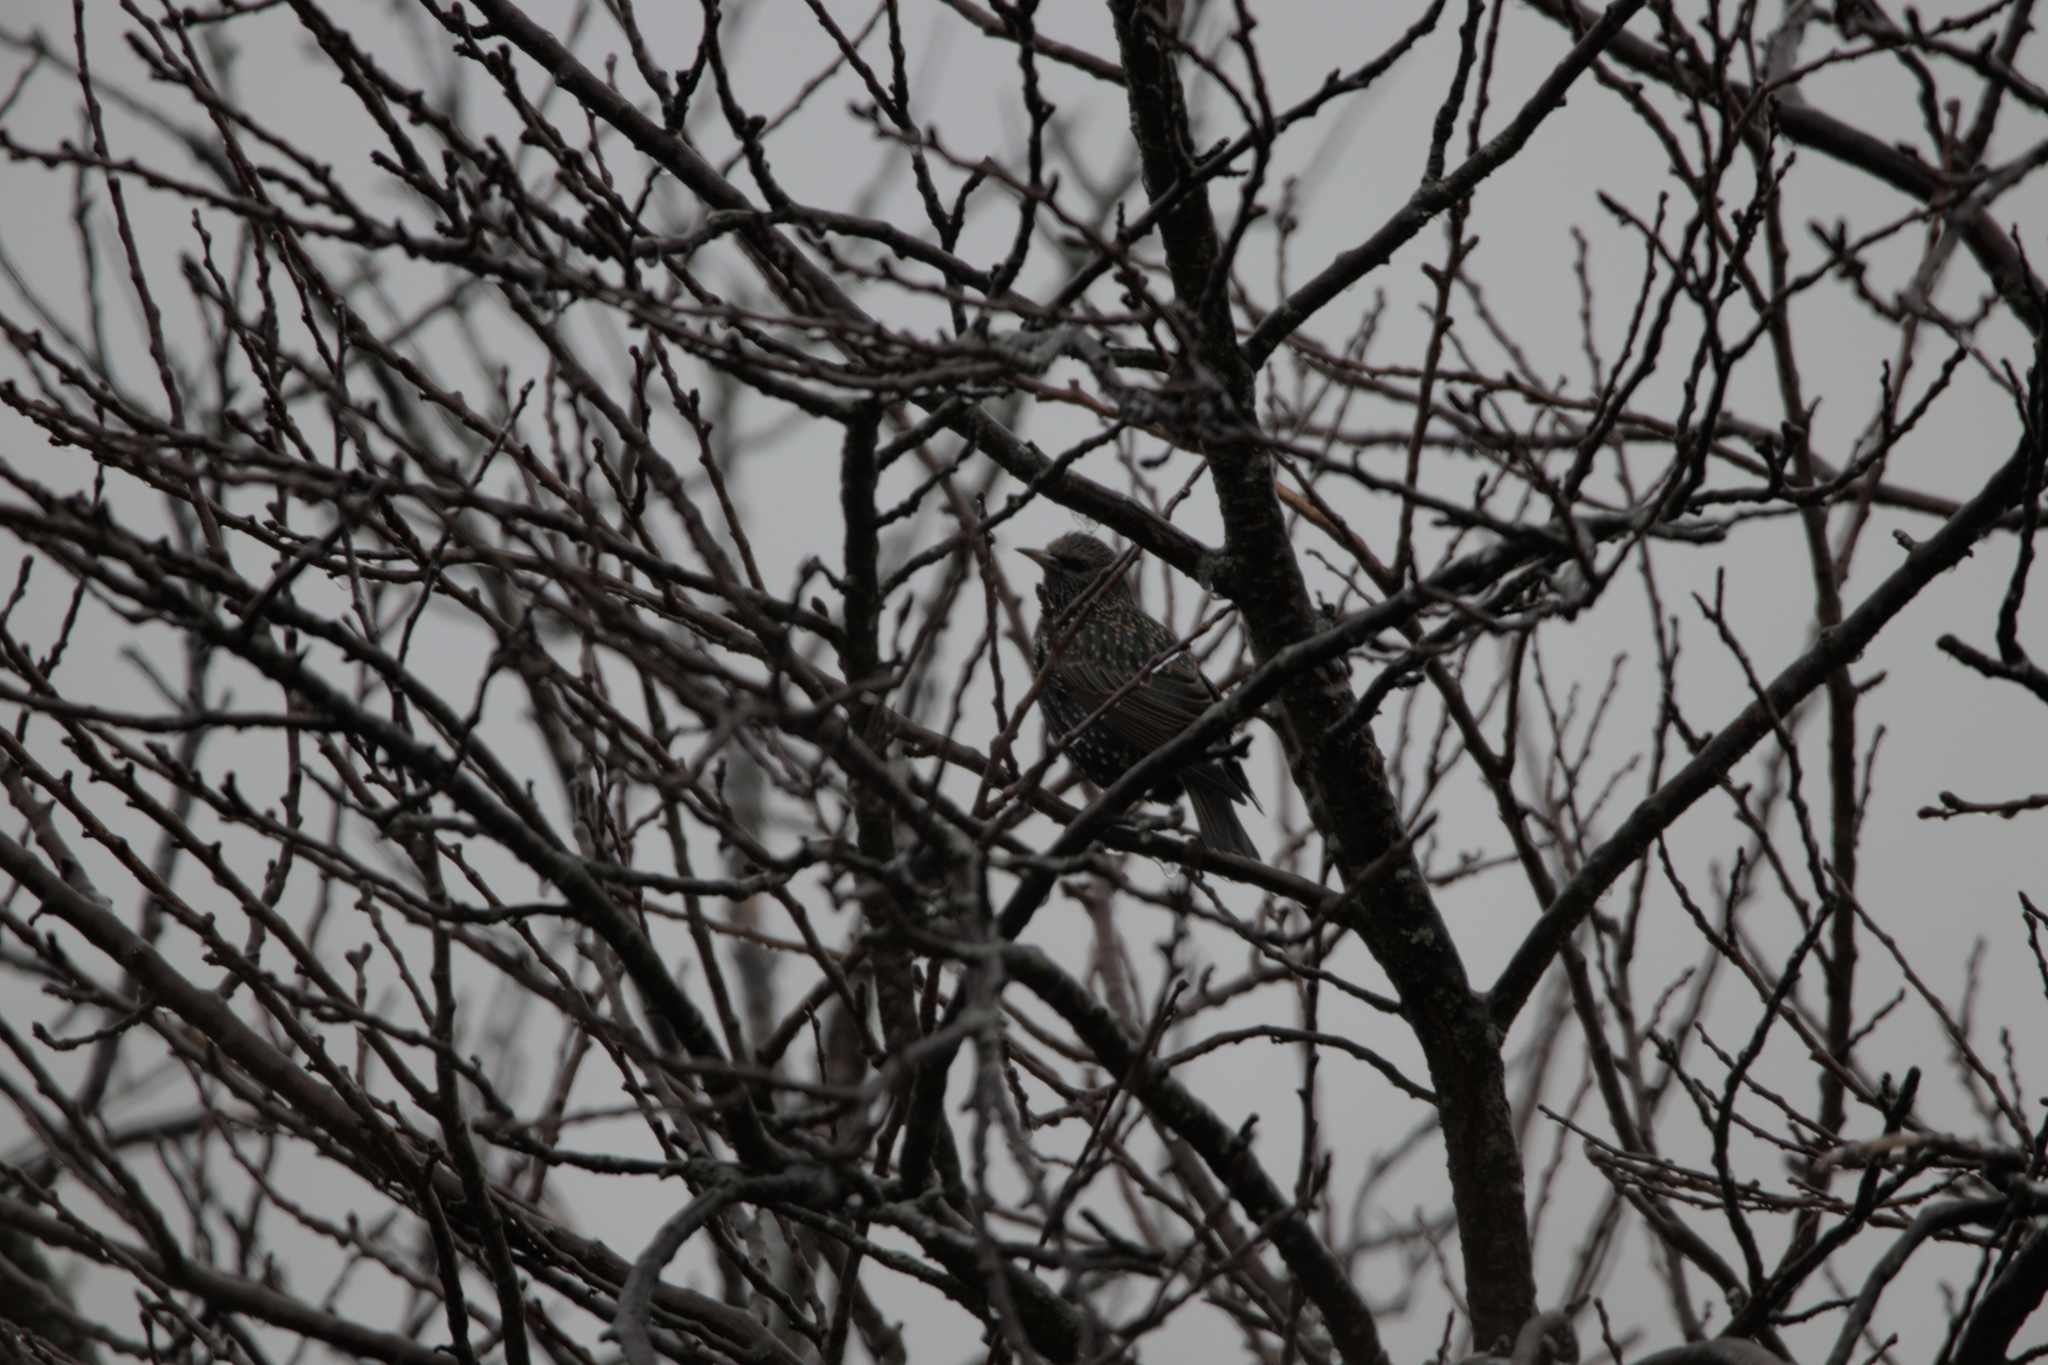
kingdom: Animalia
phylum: Chordata
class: Aves
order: Passeriformes
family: Sturnidae
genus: Sturnus
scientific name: Sturnus vulgaris
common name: Common starling
